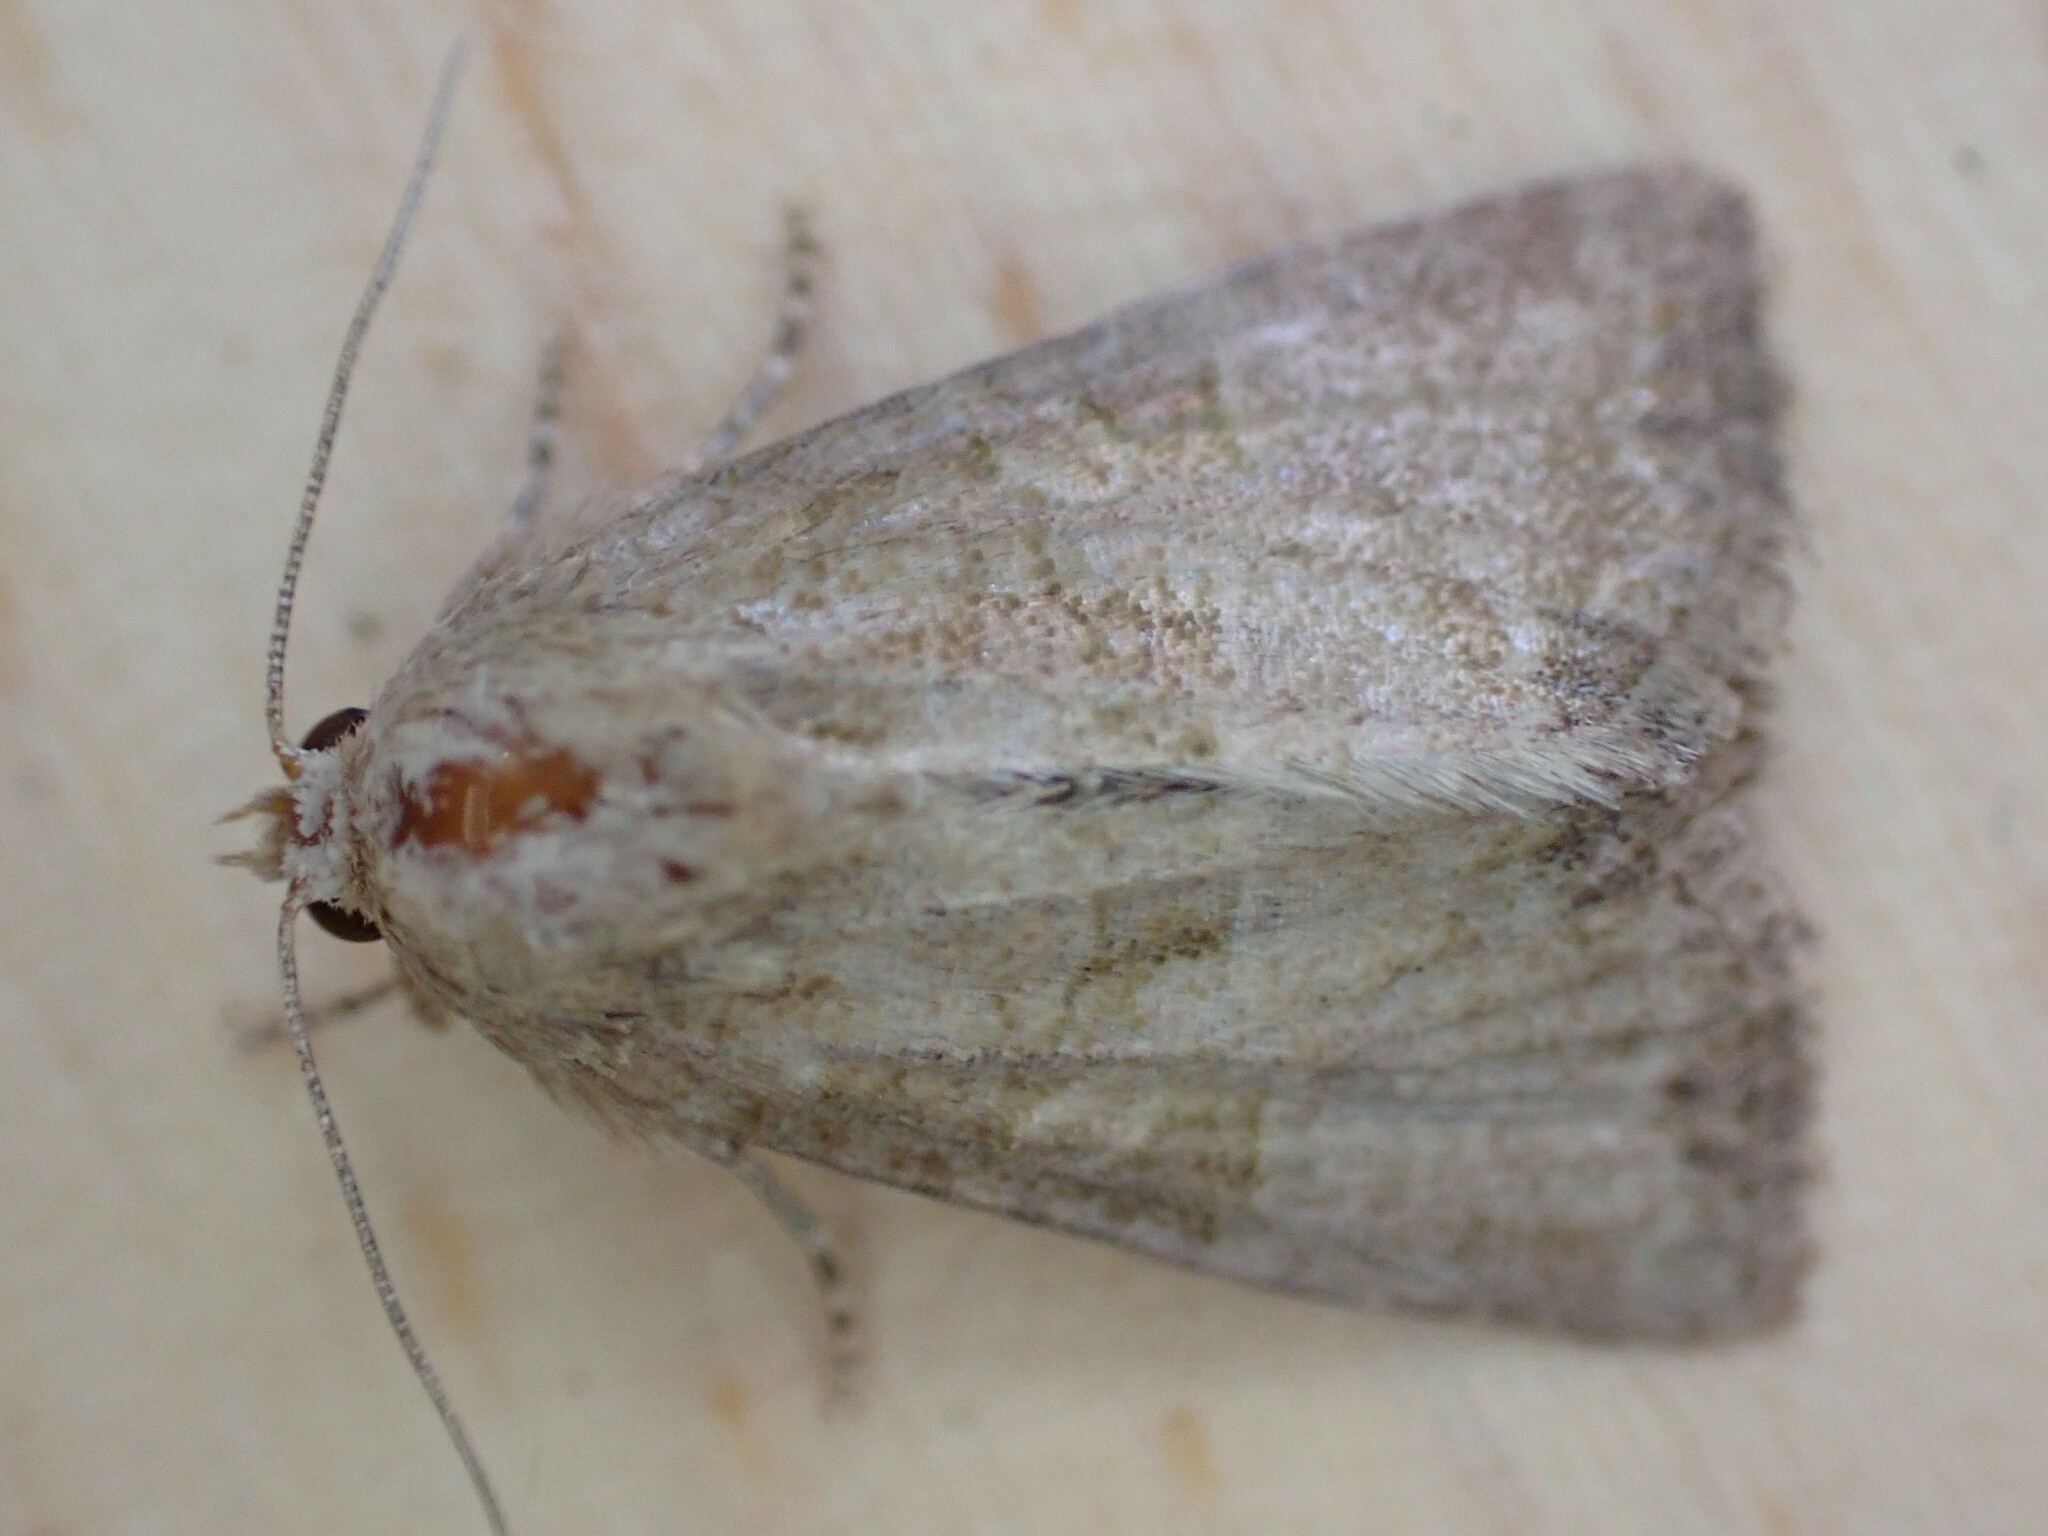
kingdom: Animalia
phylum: Arthropoda
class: Insecta
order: Lepidoptera
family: Noctuidae
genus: Mesoligia
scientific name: Mesoligia furuncula
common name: Cloaked minor
